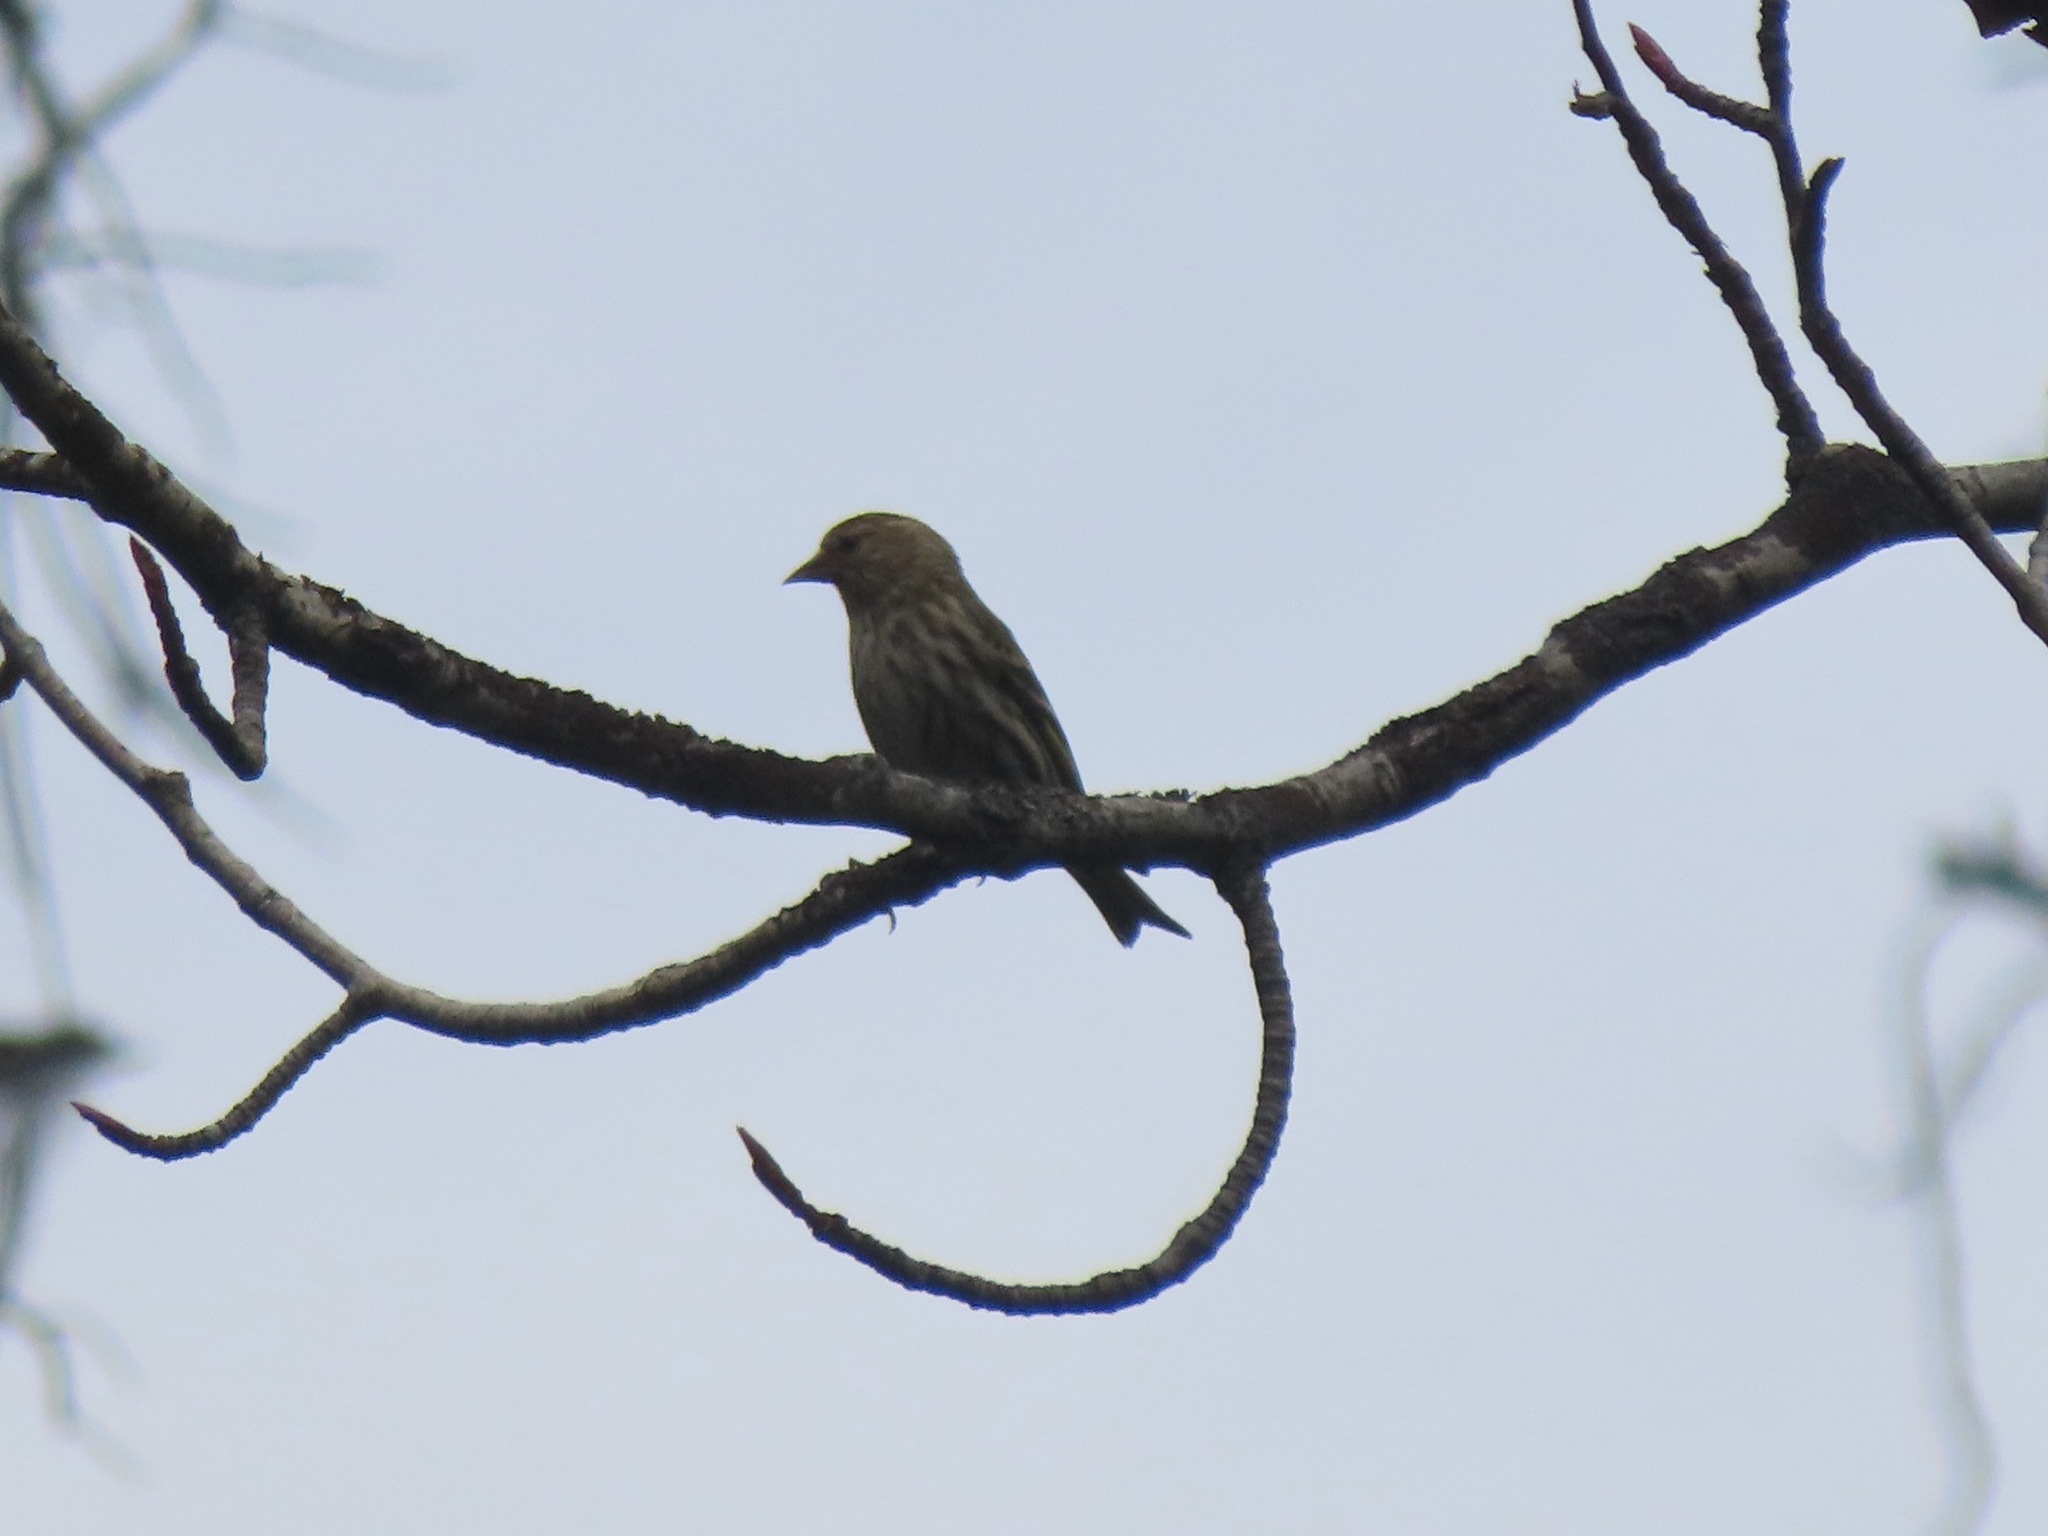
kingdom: Animalia
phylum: Chordata
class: Aves
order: Passeriformes
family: Fringillidae
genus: Spinus
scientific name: Spinus pinus
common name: Pine siskin
